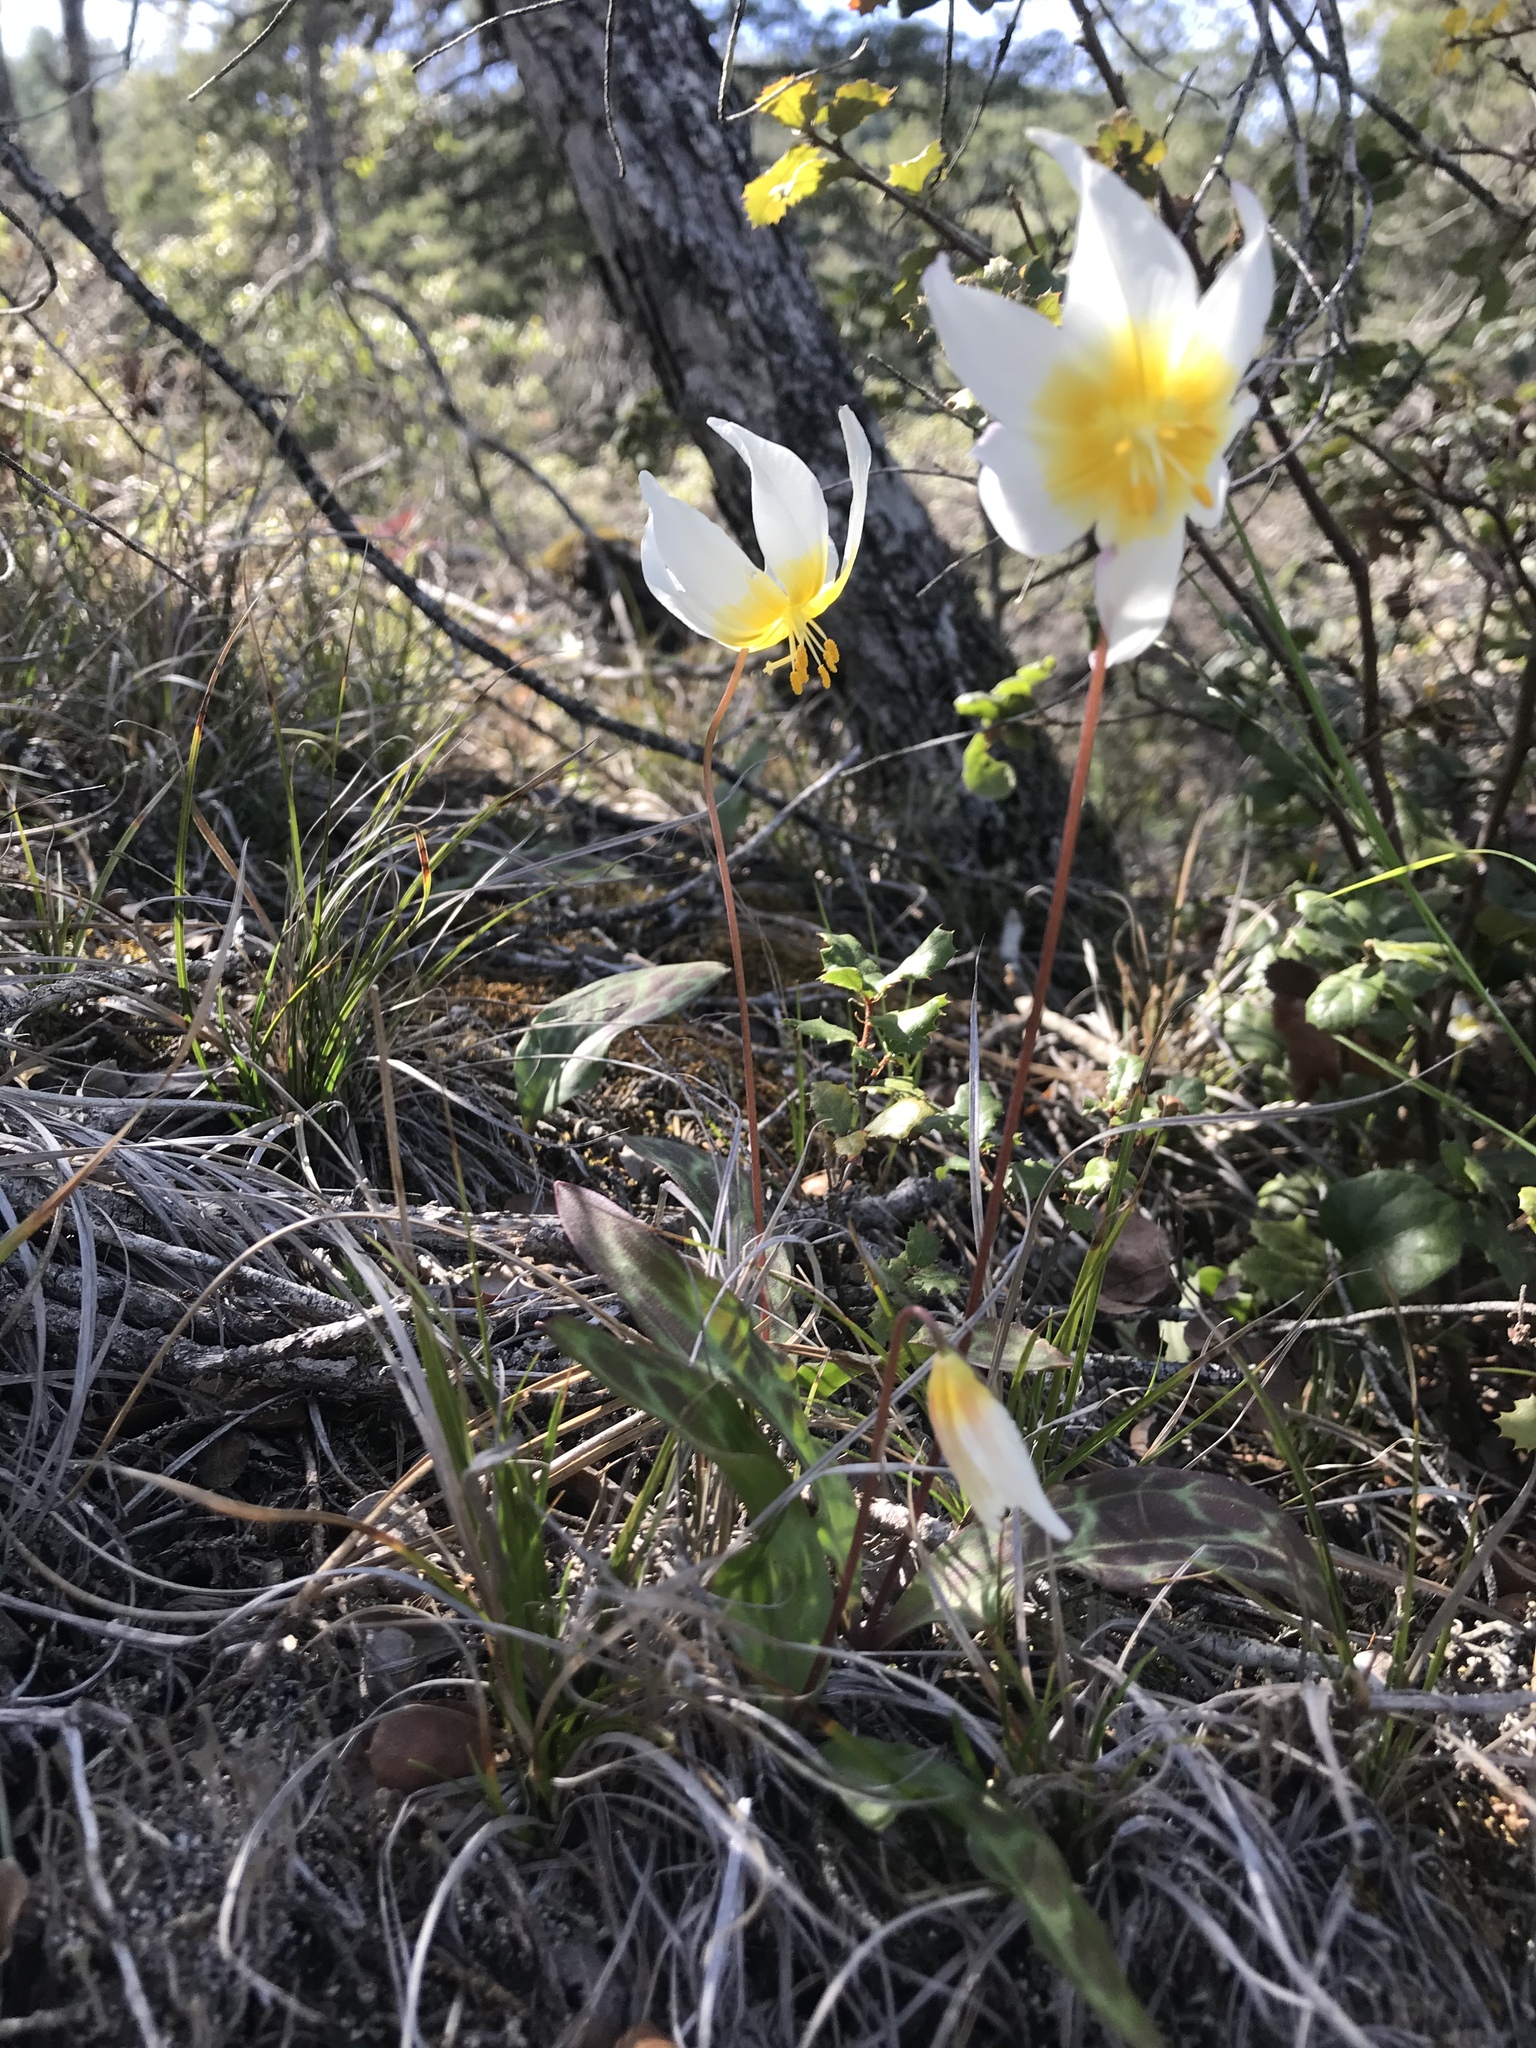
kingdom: Plantae
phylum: Tracheophyta
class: Liliopsida
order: Liliales
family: Liliaceae
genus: Erythronium
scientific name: Erythronium helenae
